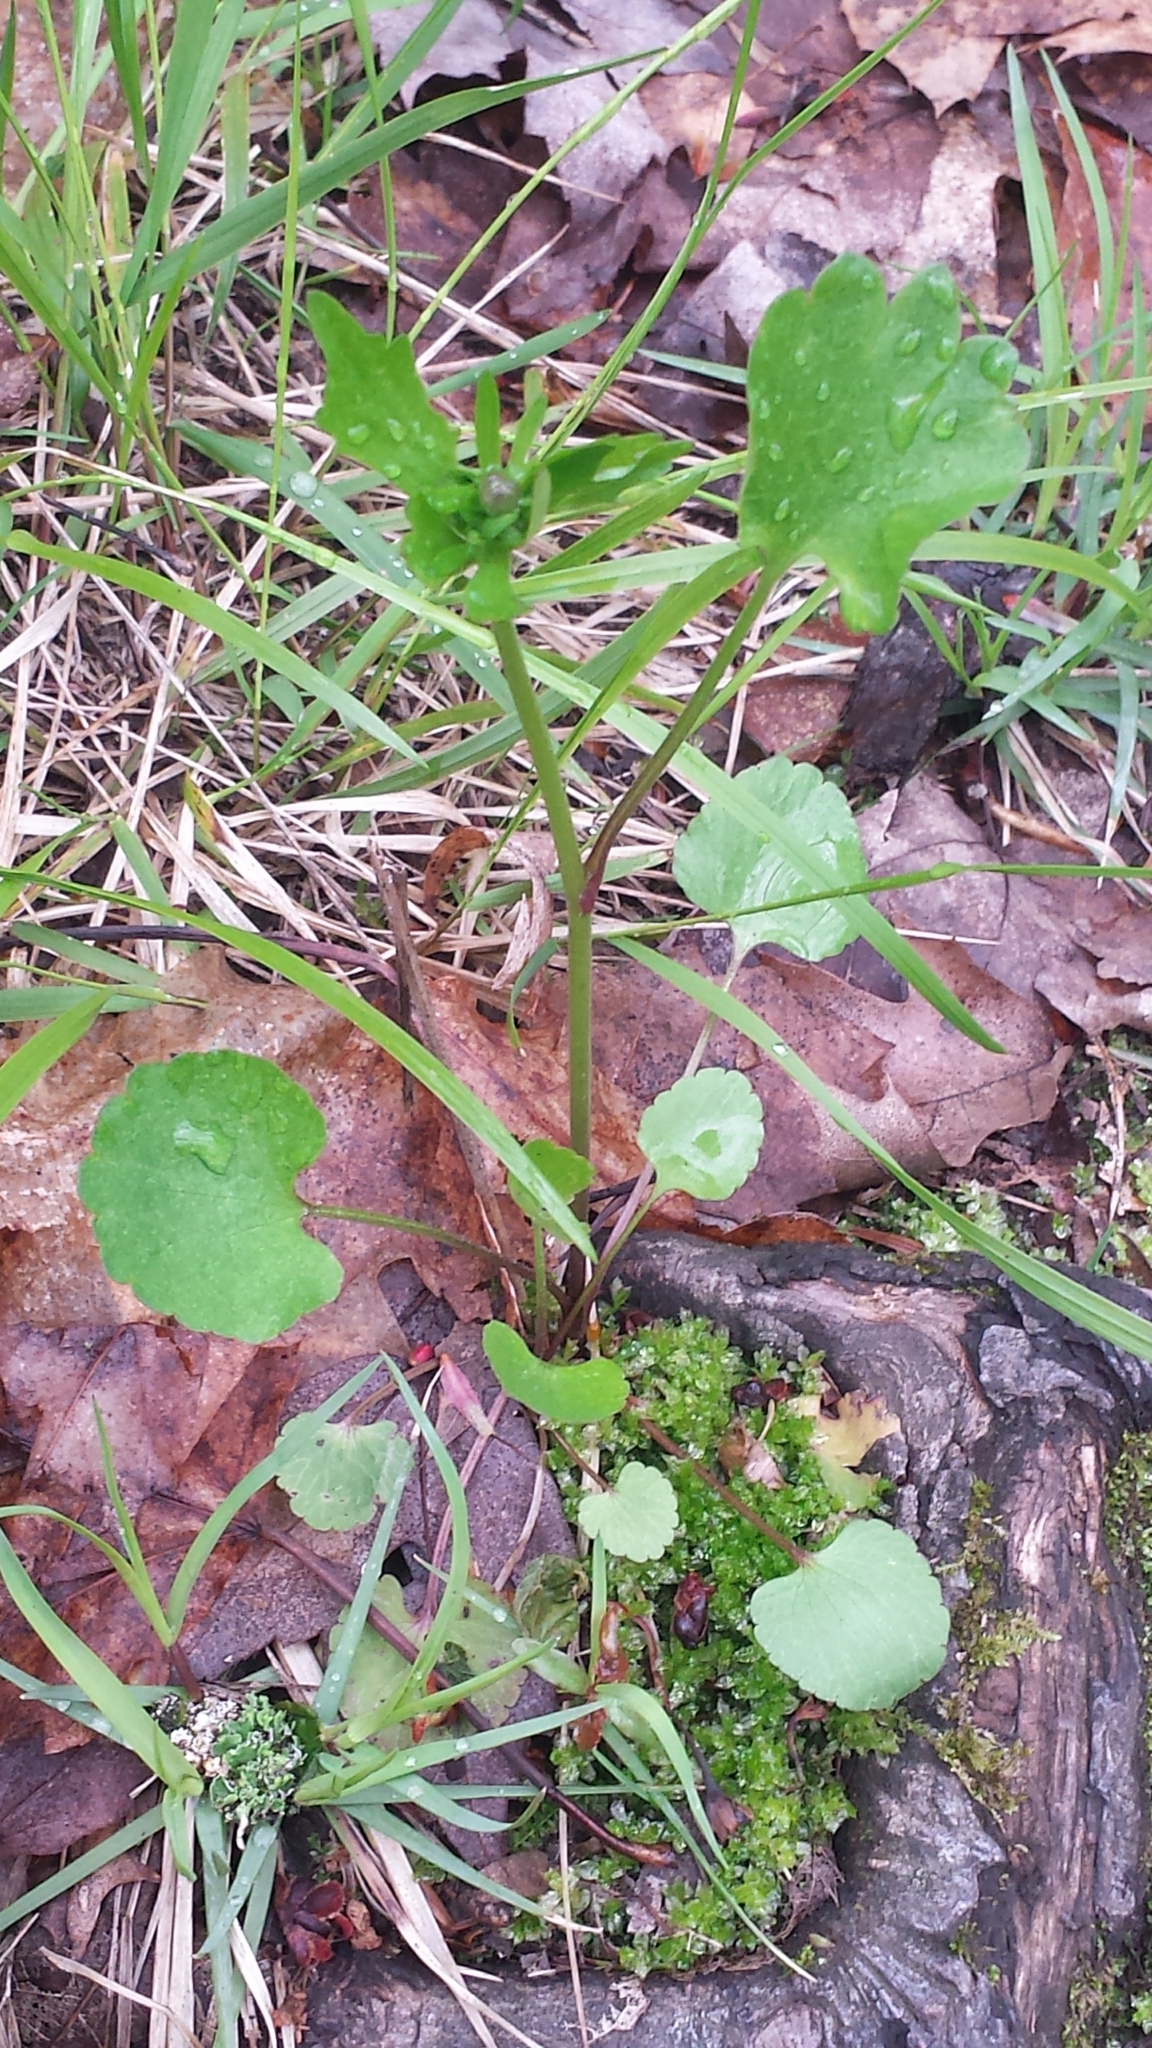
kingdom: Plantae
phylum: Tracheophyta
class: Magnoliopsida
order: Ranunculales
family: Ranunculaceae
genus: Ranunculus
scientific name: Ranunculus abortivus
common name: Early wood buttercup
